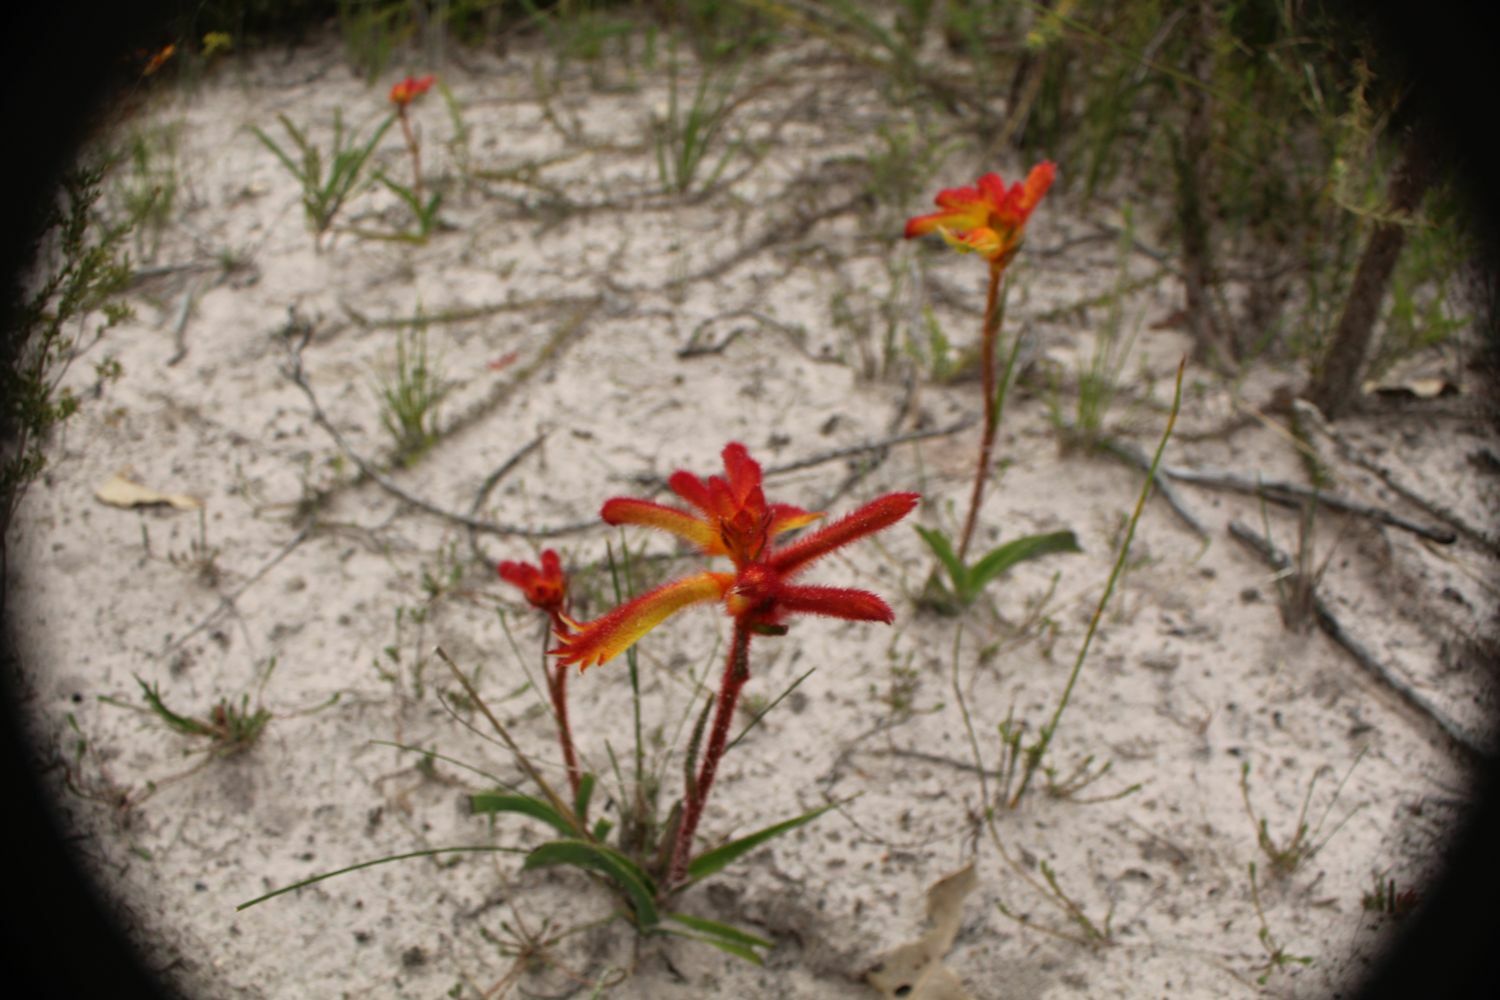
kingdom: Plantae
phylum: Tracheophyta
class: Liliopsida
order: Commelinales
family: Haemodoraceae
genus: Anigozanthos
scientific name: Anigozanthos humilis
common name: Cat's-paw
